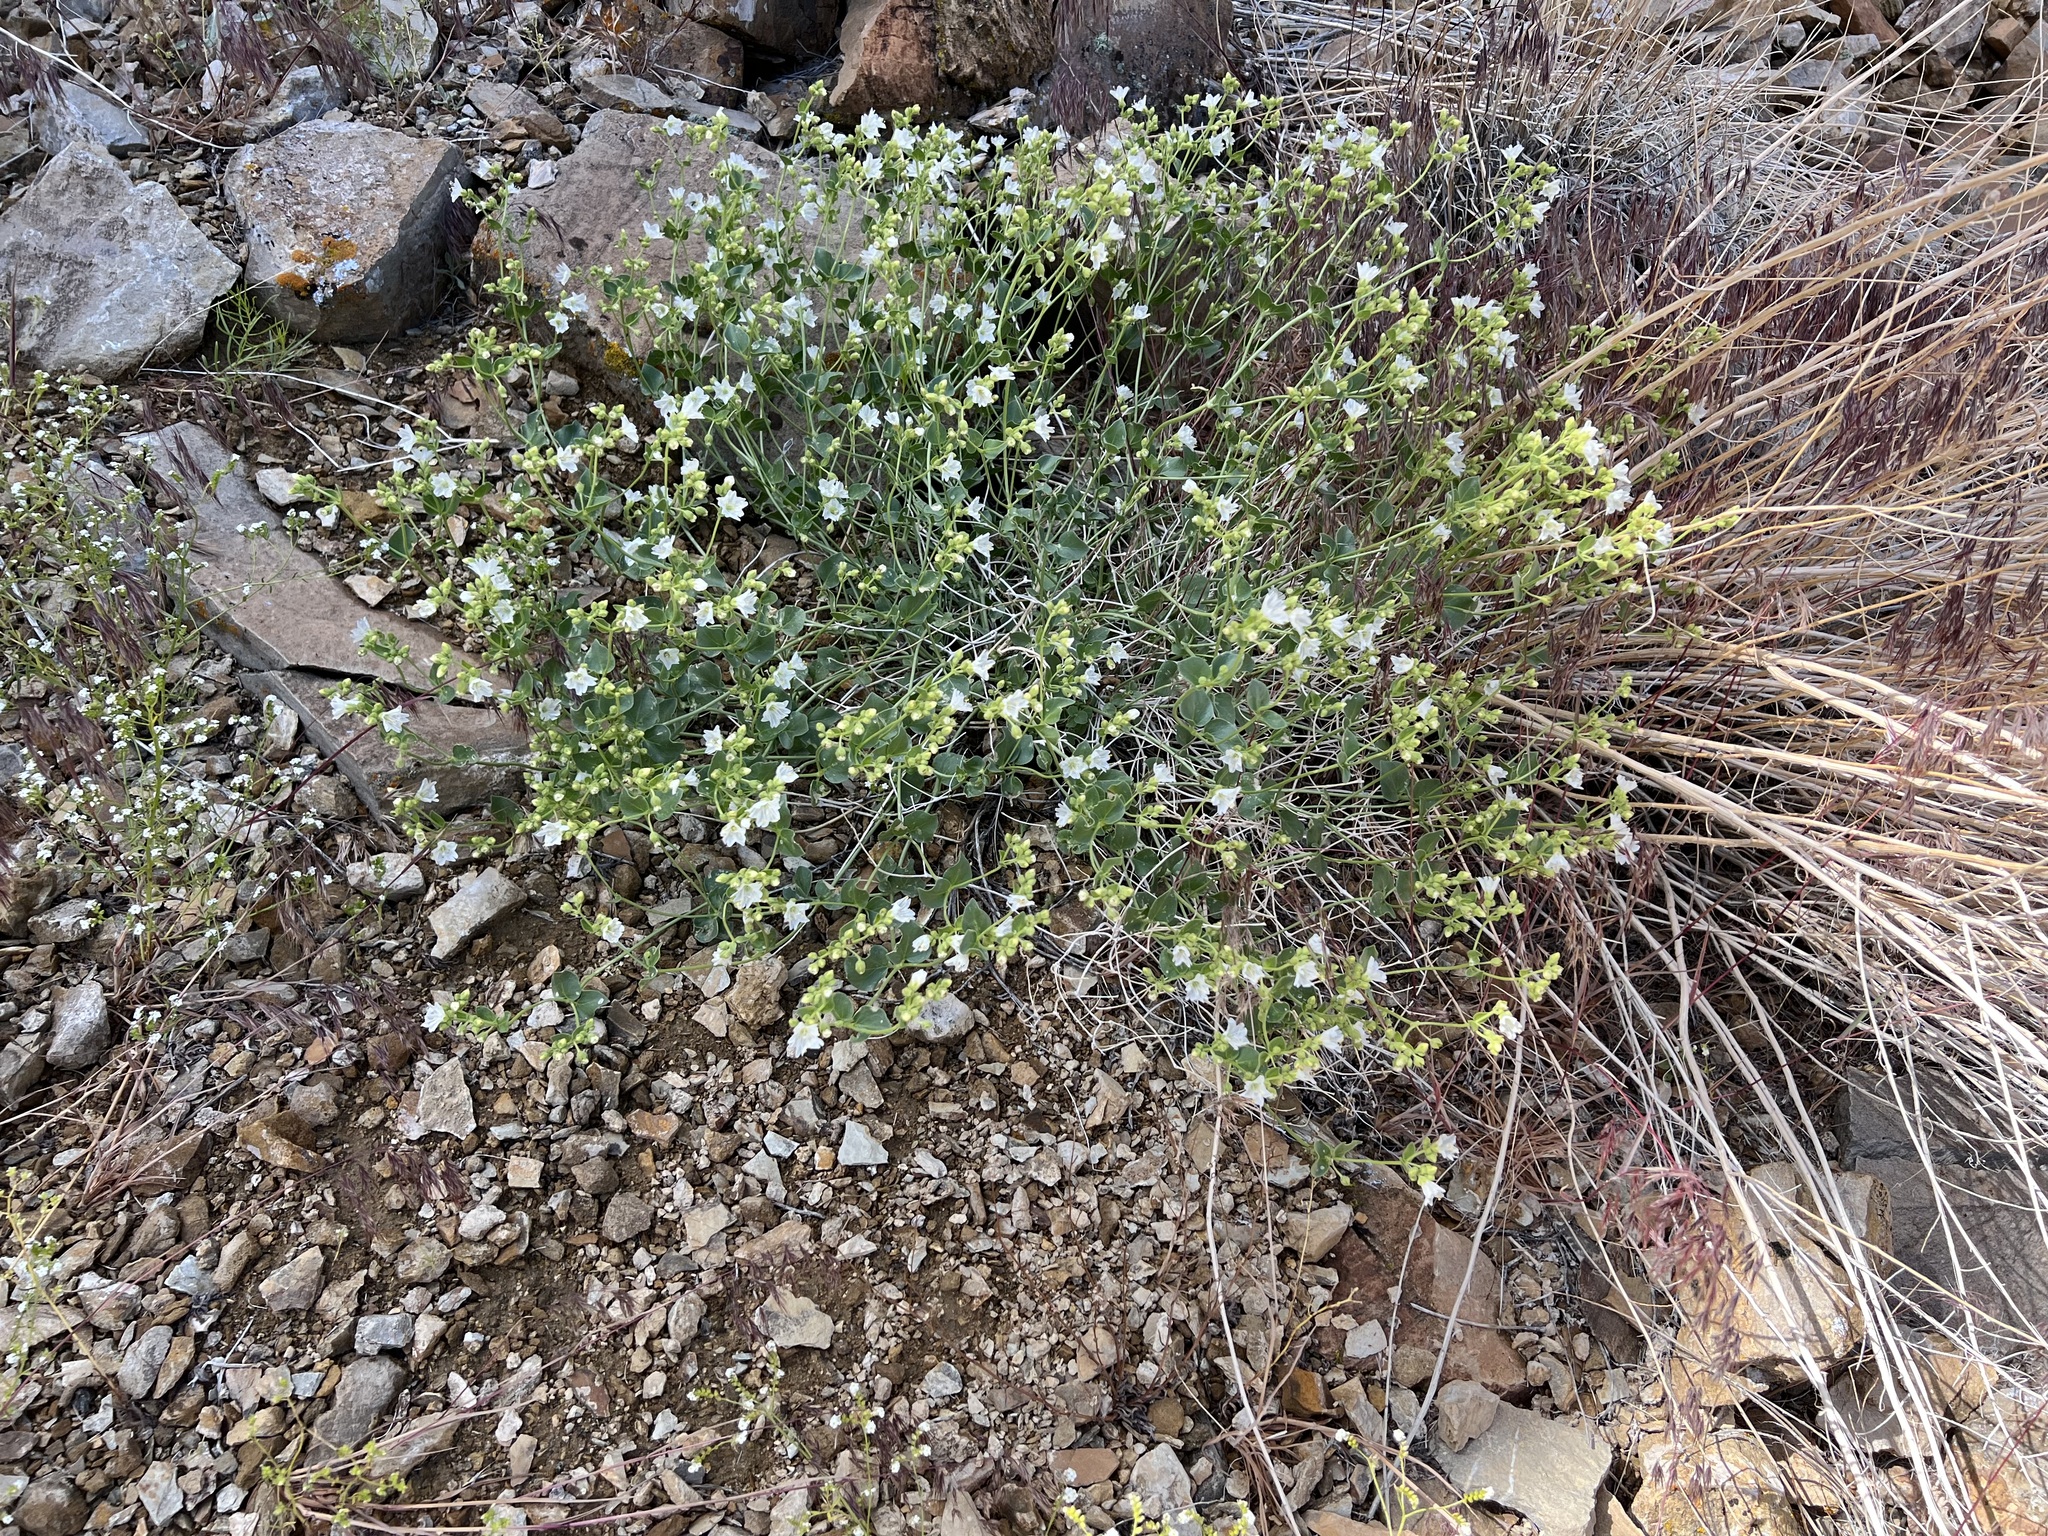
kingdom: Plantae
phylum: Tracheophyta
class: Magnoliopsida
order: Caryophyllales
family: Nyctaginaceae
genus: Mirabilis
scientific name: Mirabilis laevis
